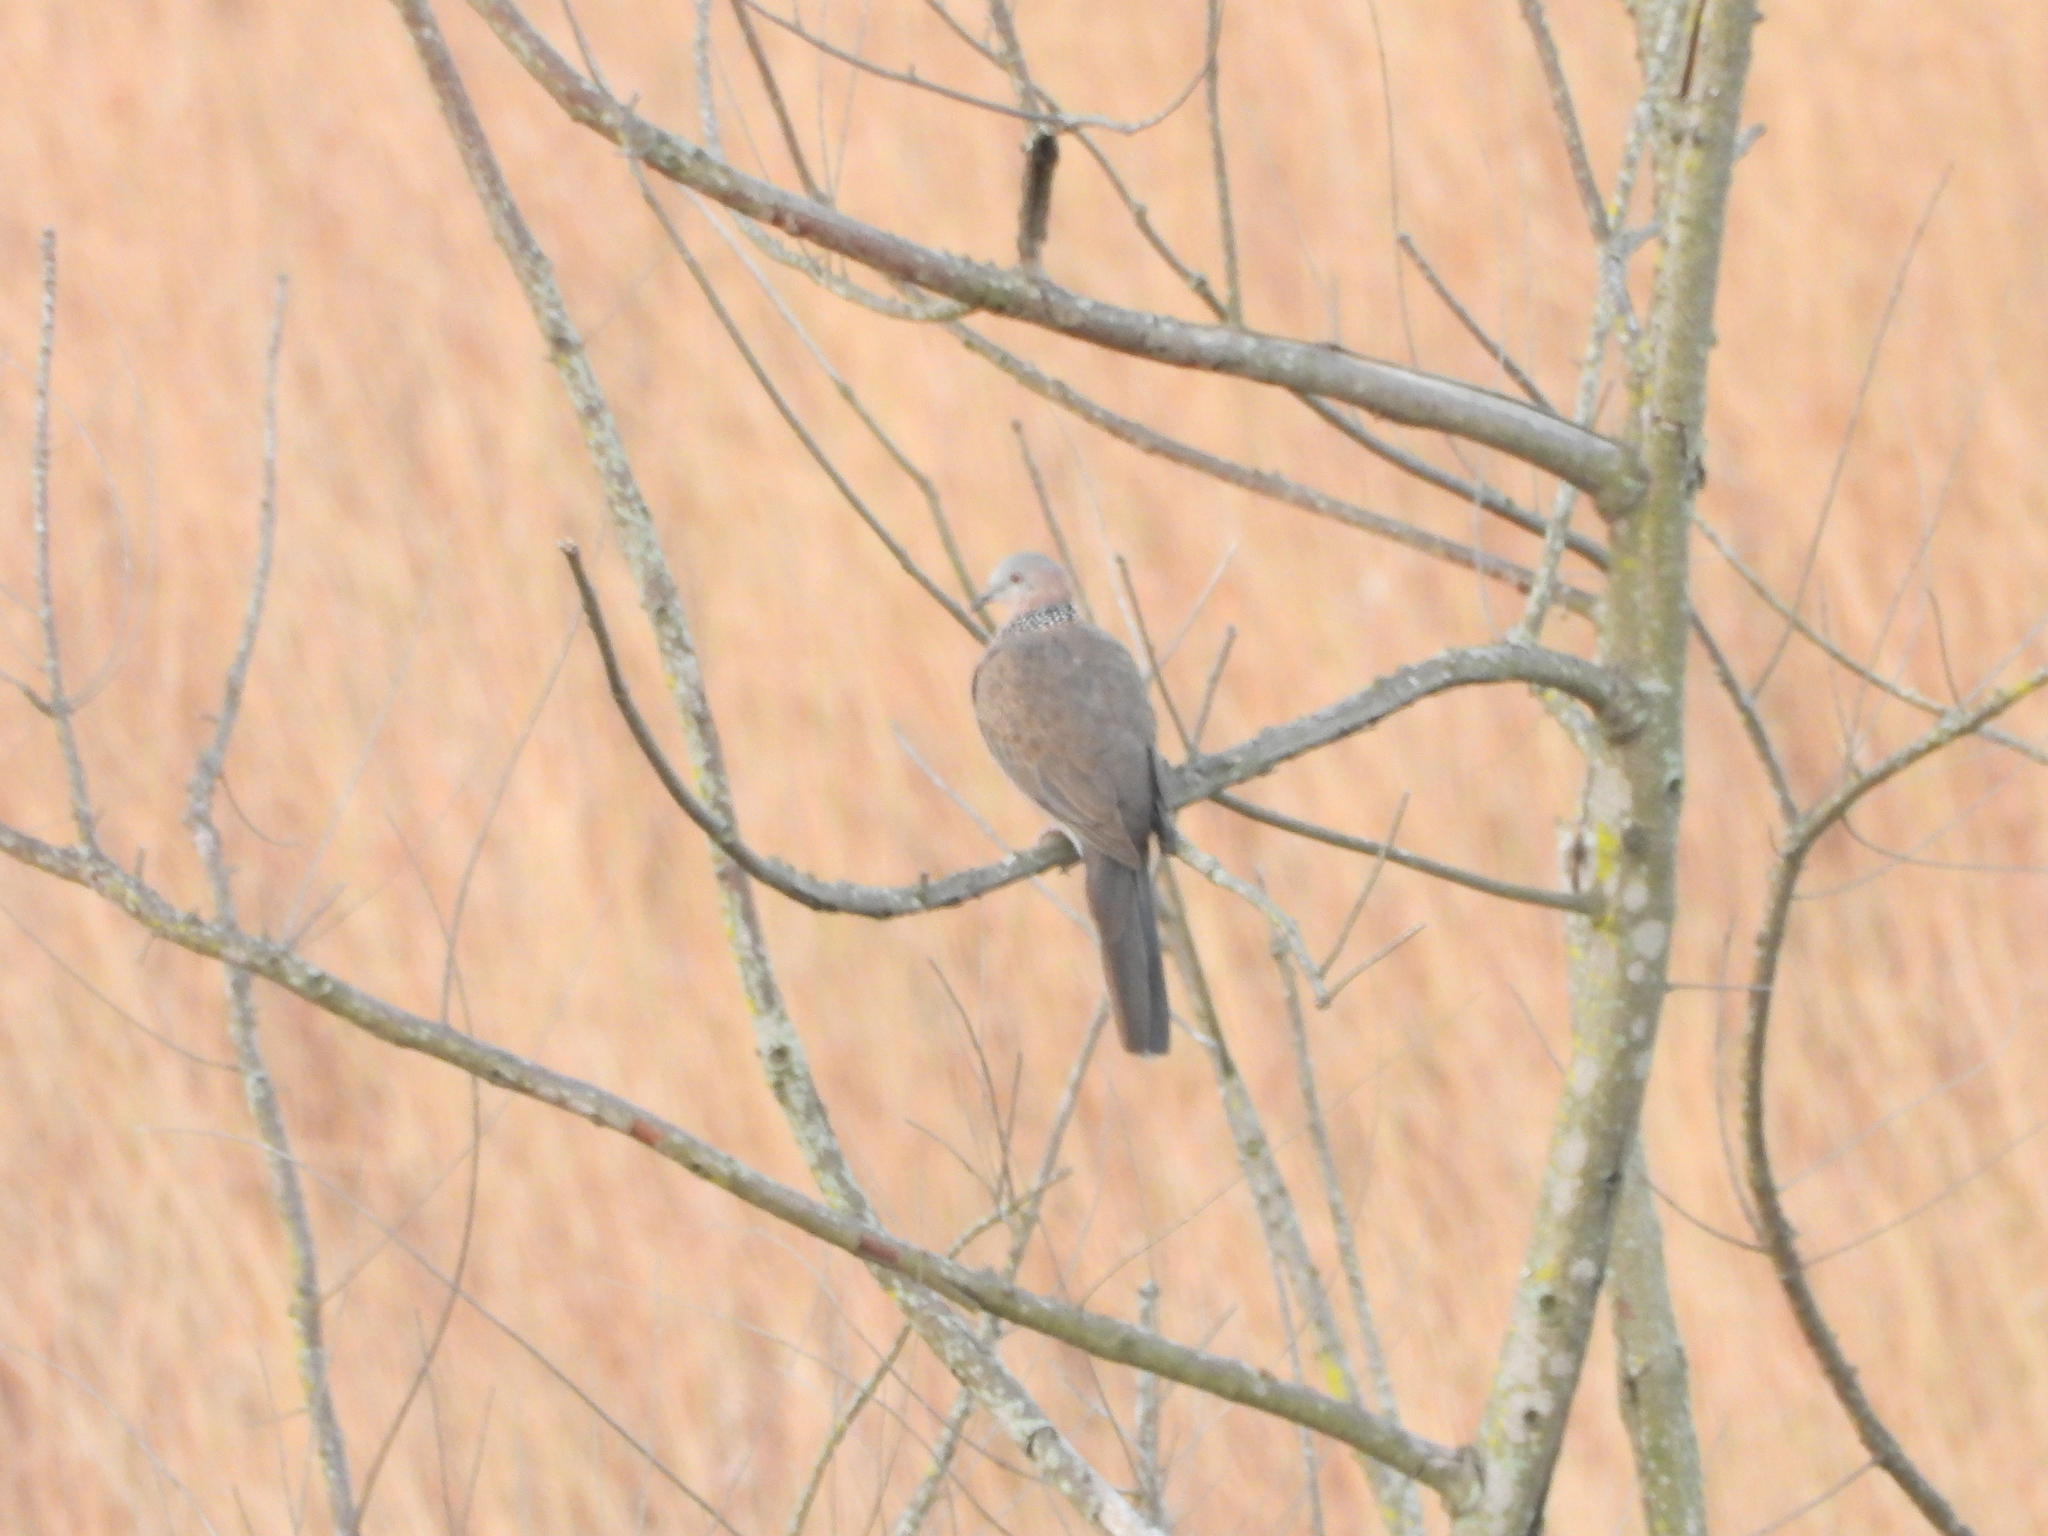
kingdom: Animalia
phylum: Chordata
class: Aves
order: Columbiformes
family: Columbidae
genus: Spilopelia
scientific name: Spilopelia chinensis
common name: Spotted dove
